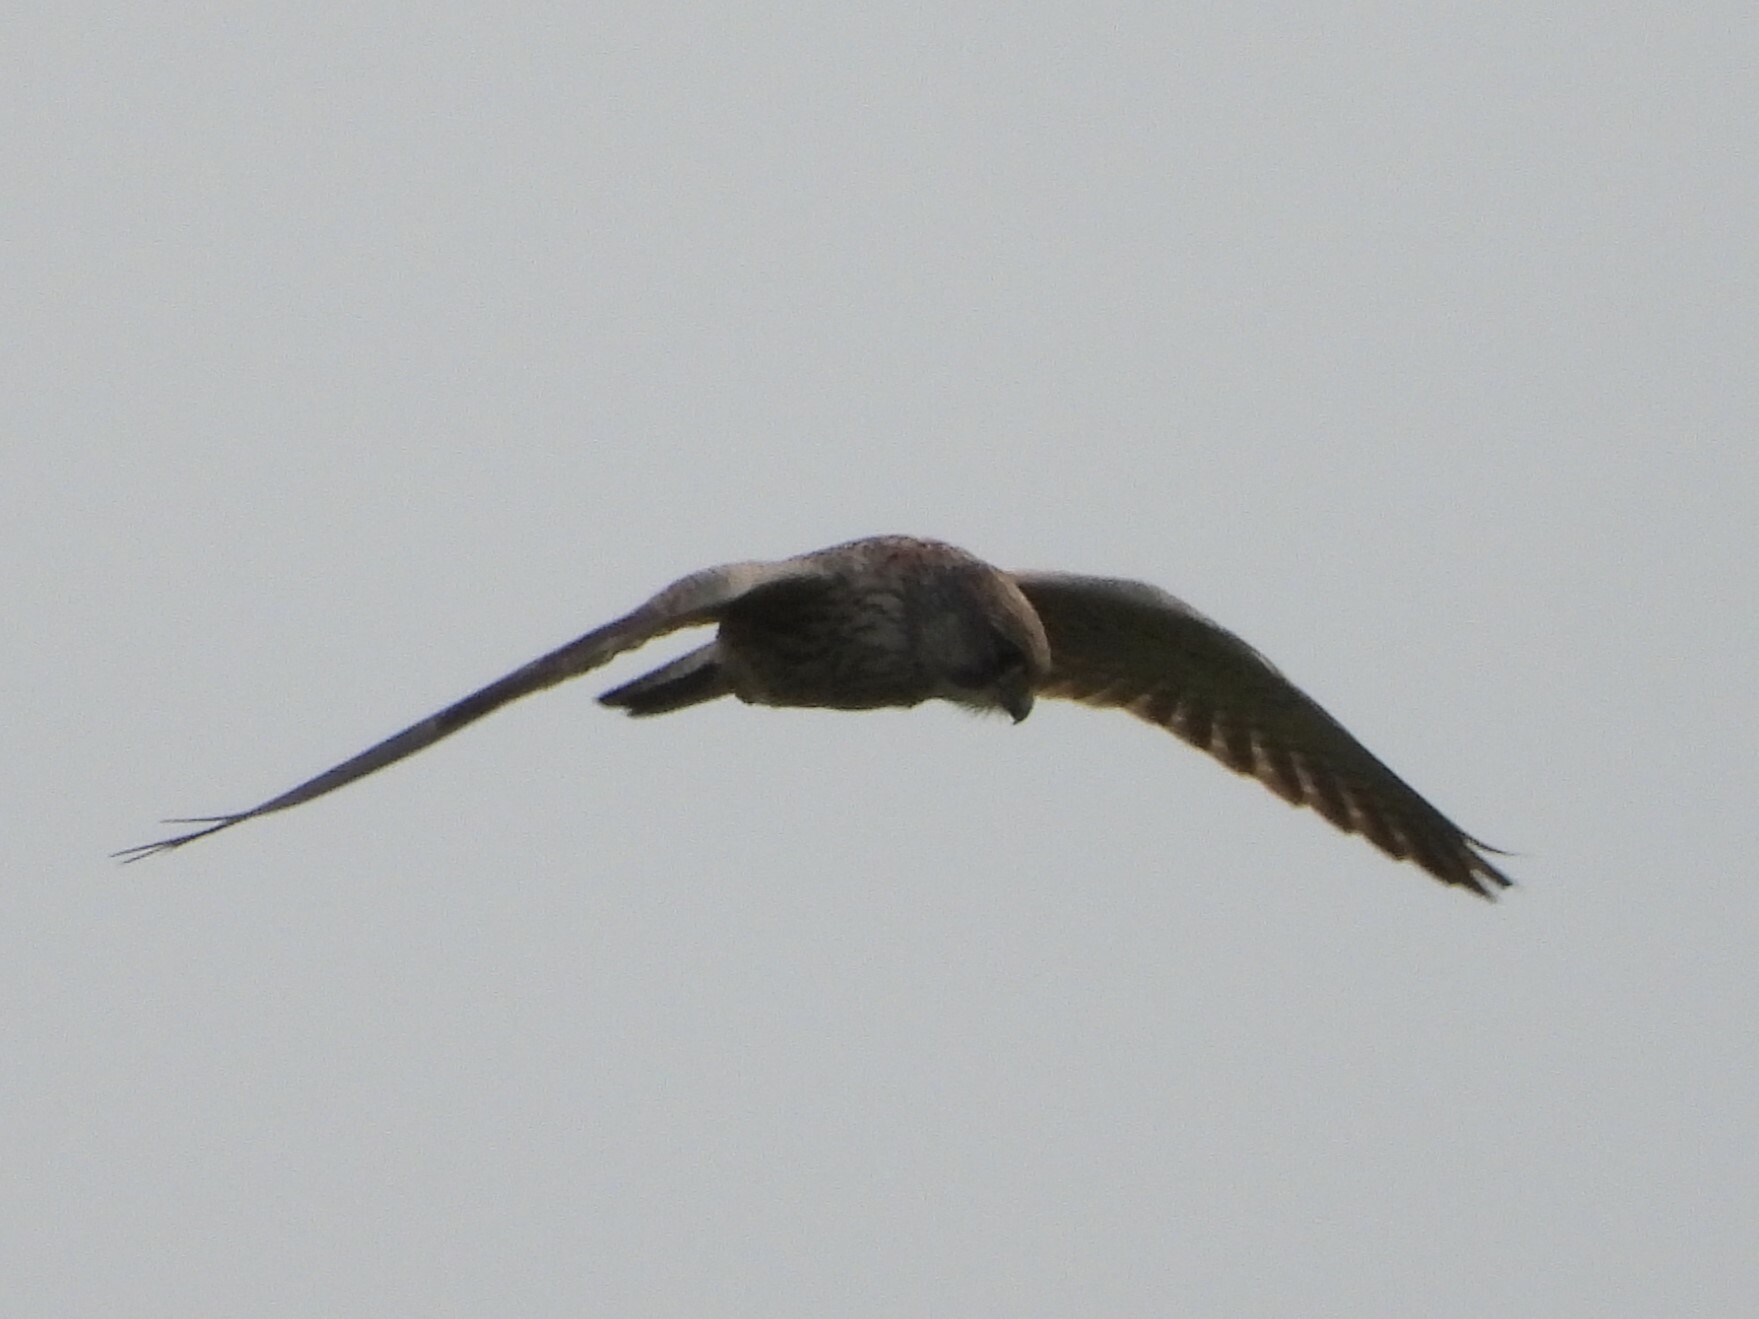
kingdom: Animalia
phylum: Chordata
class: Aves
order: Falconiformes
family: Falconidae
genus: Falco
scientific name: Falco tinnunculus
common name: Common kestrel
